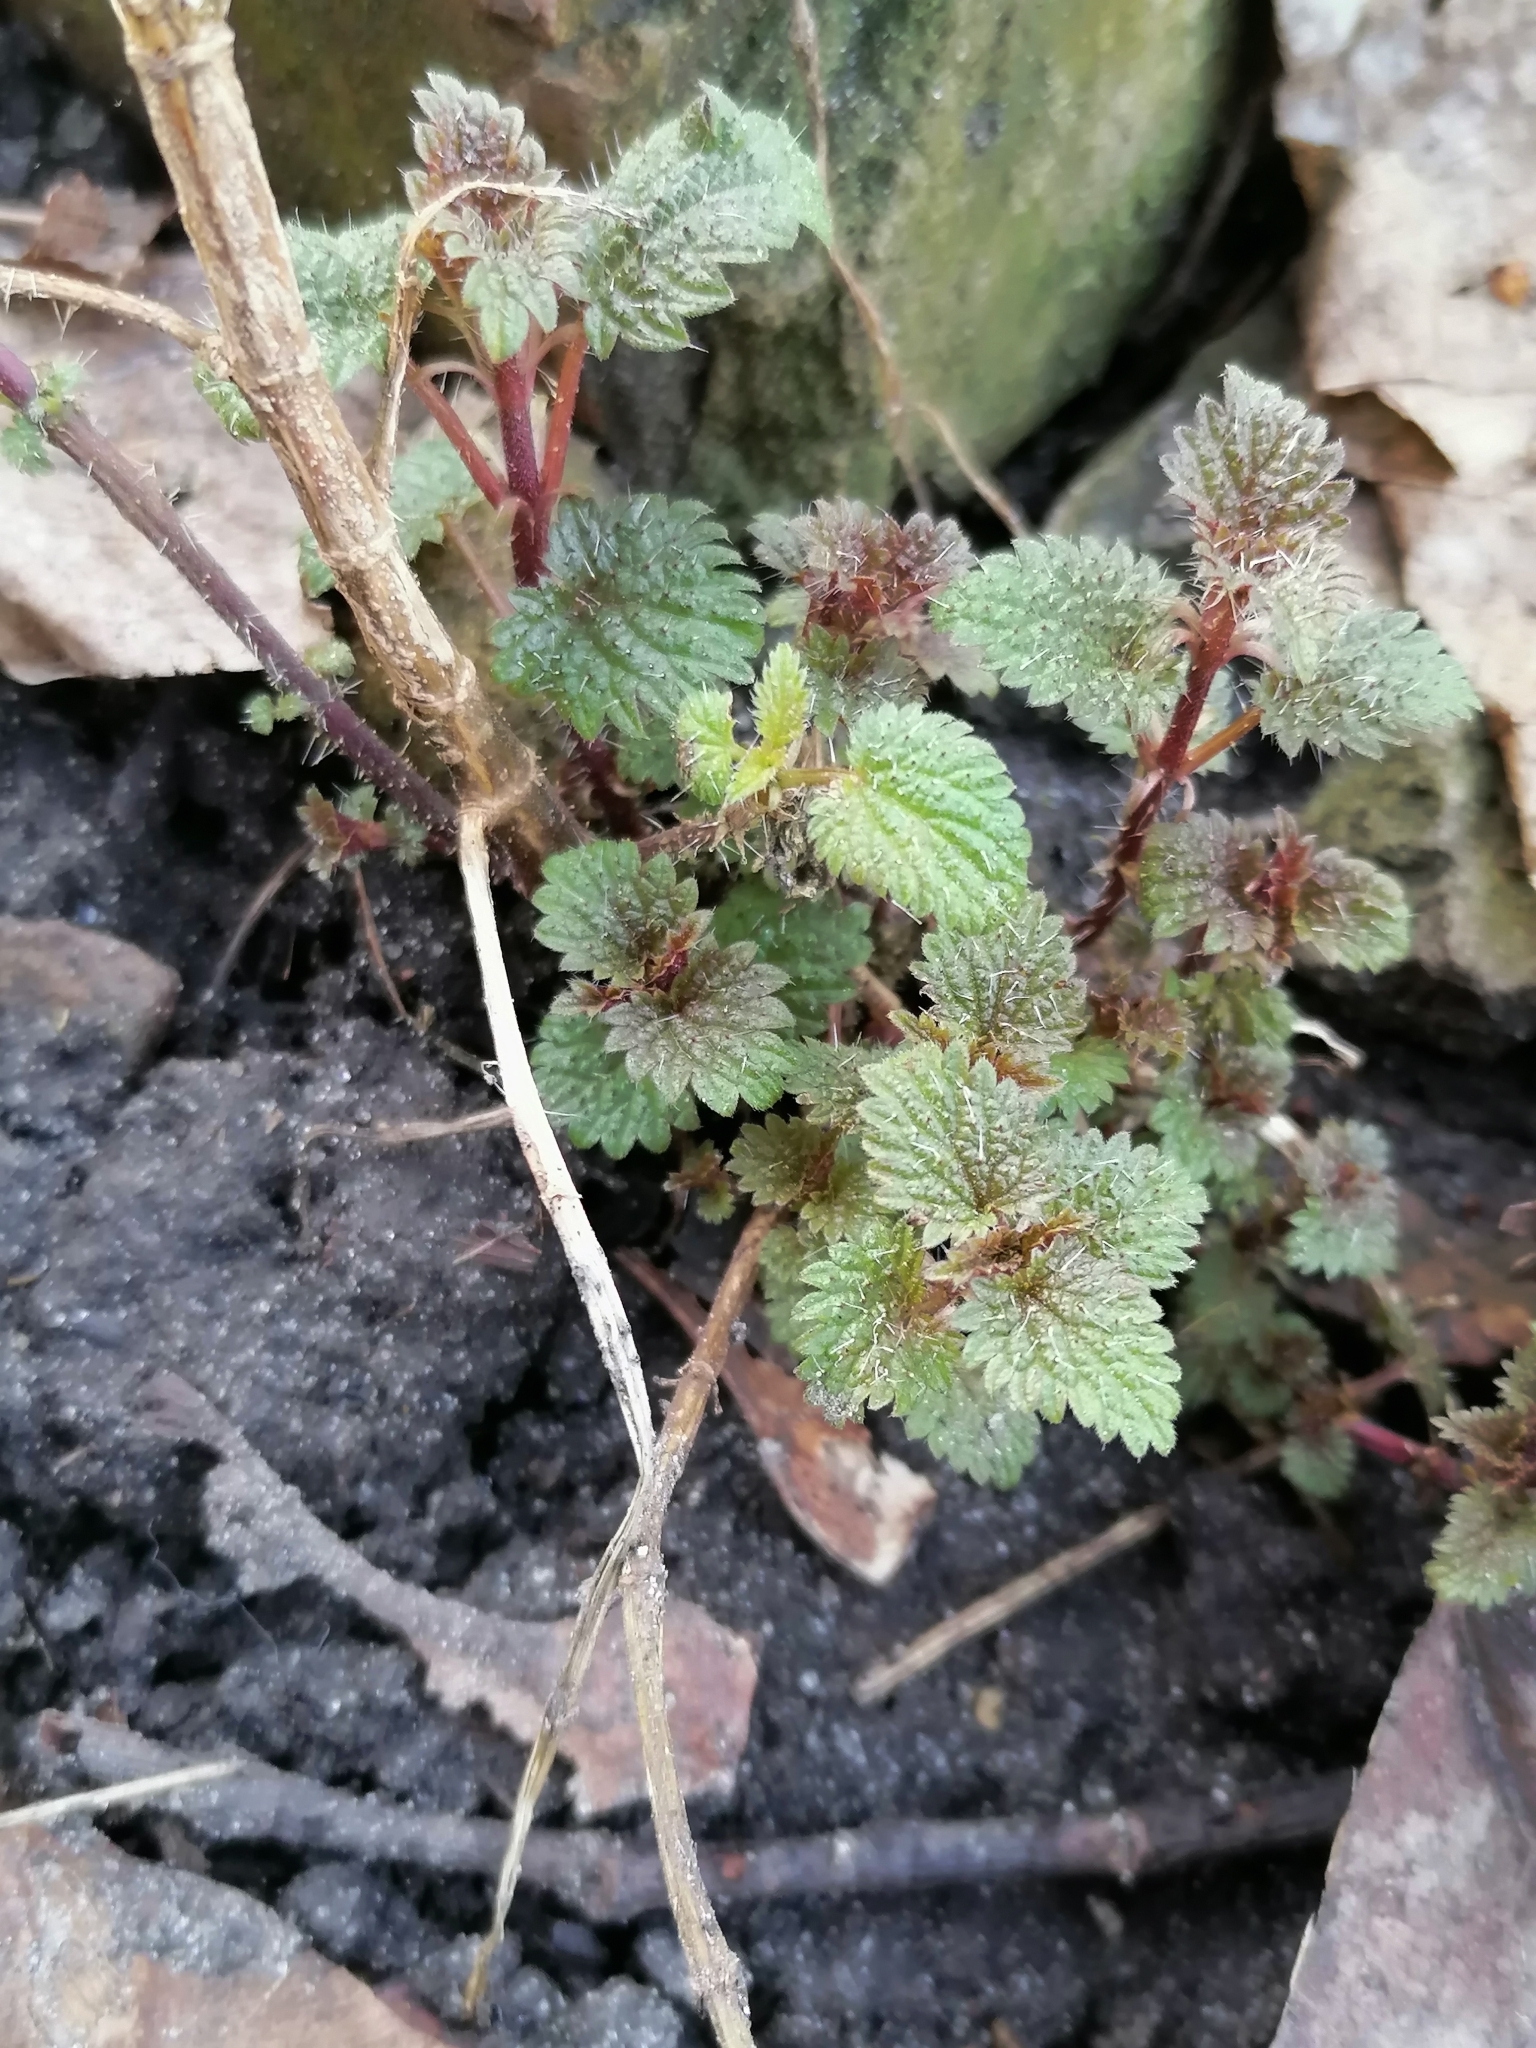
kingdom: Plantae
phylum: Tracheophyta
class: Magnoliopsida
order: Rosales
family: Urticaceae
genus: Urtica
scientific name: Urtica dioica
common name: Common nettle
